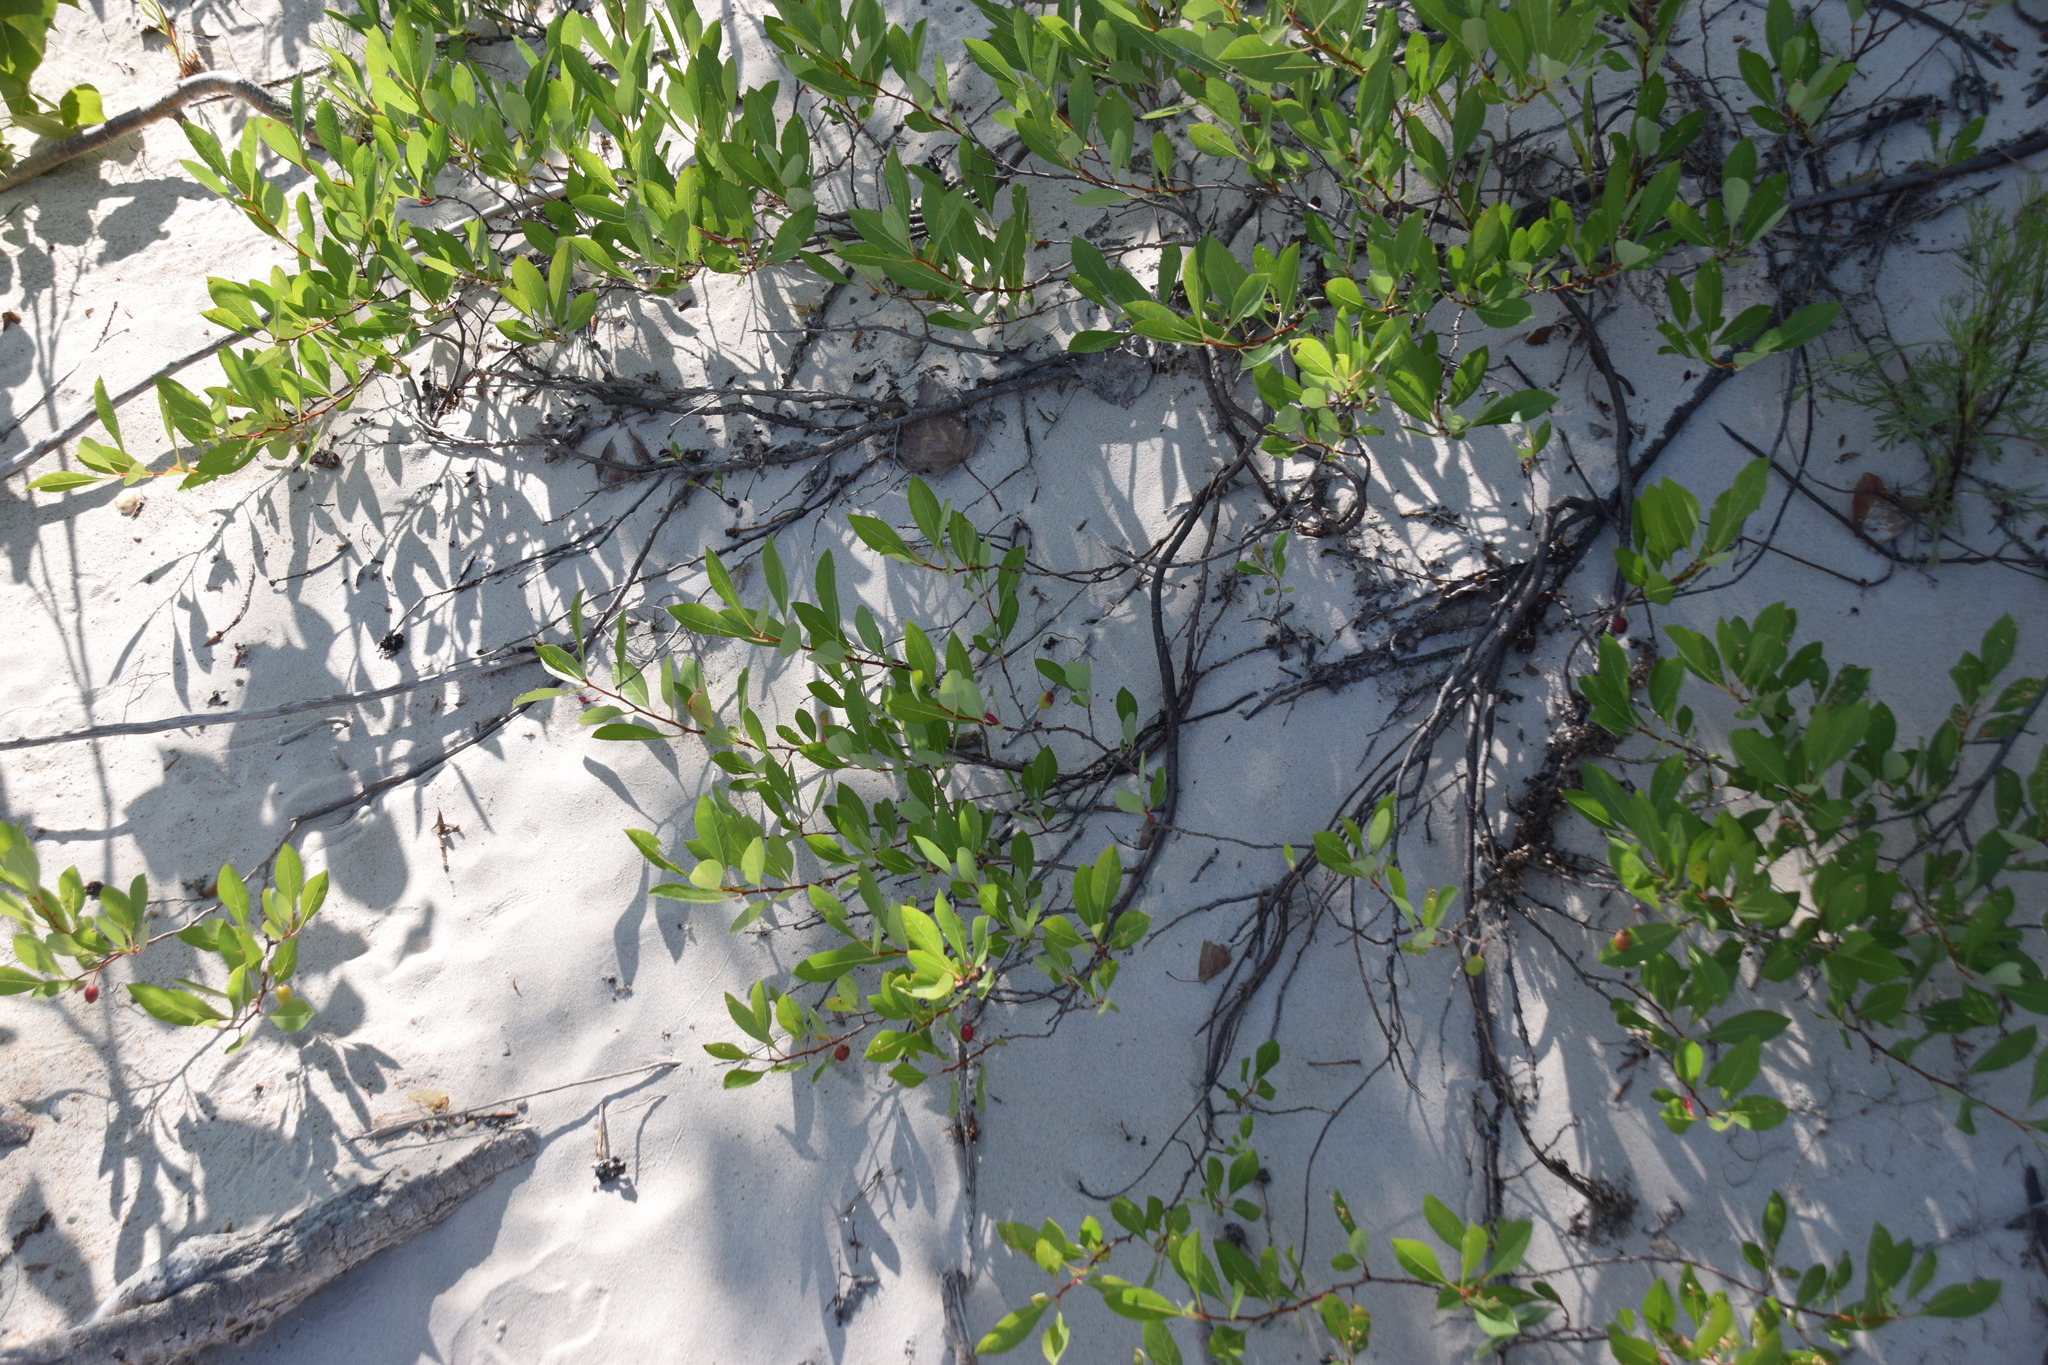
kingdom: Plantae
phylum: Tracheophyta
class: Magnoliopsida
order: Rosales
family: Rosaceae
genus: Prunus
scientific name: Prunus pumila
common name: Dwarf cherry
